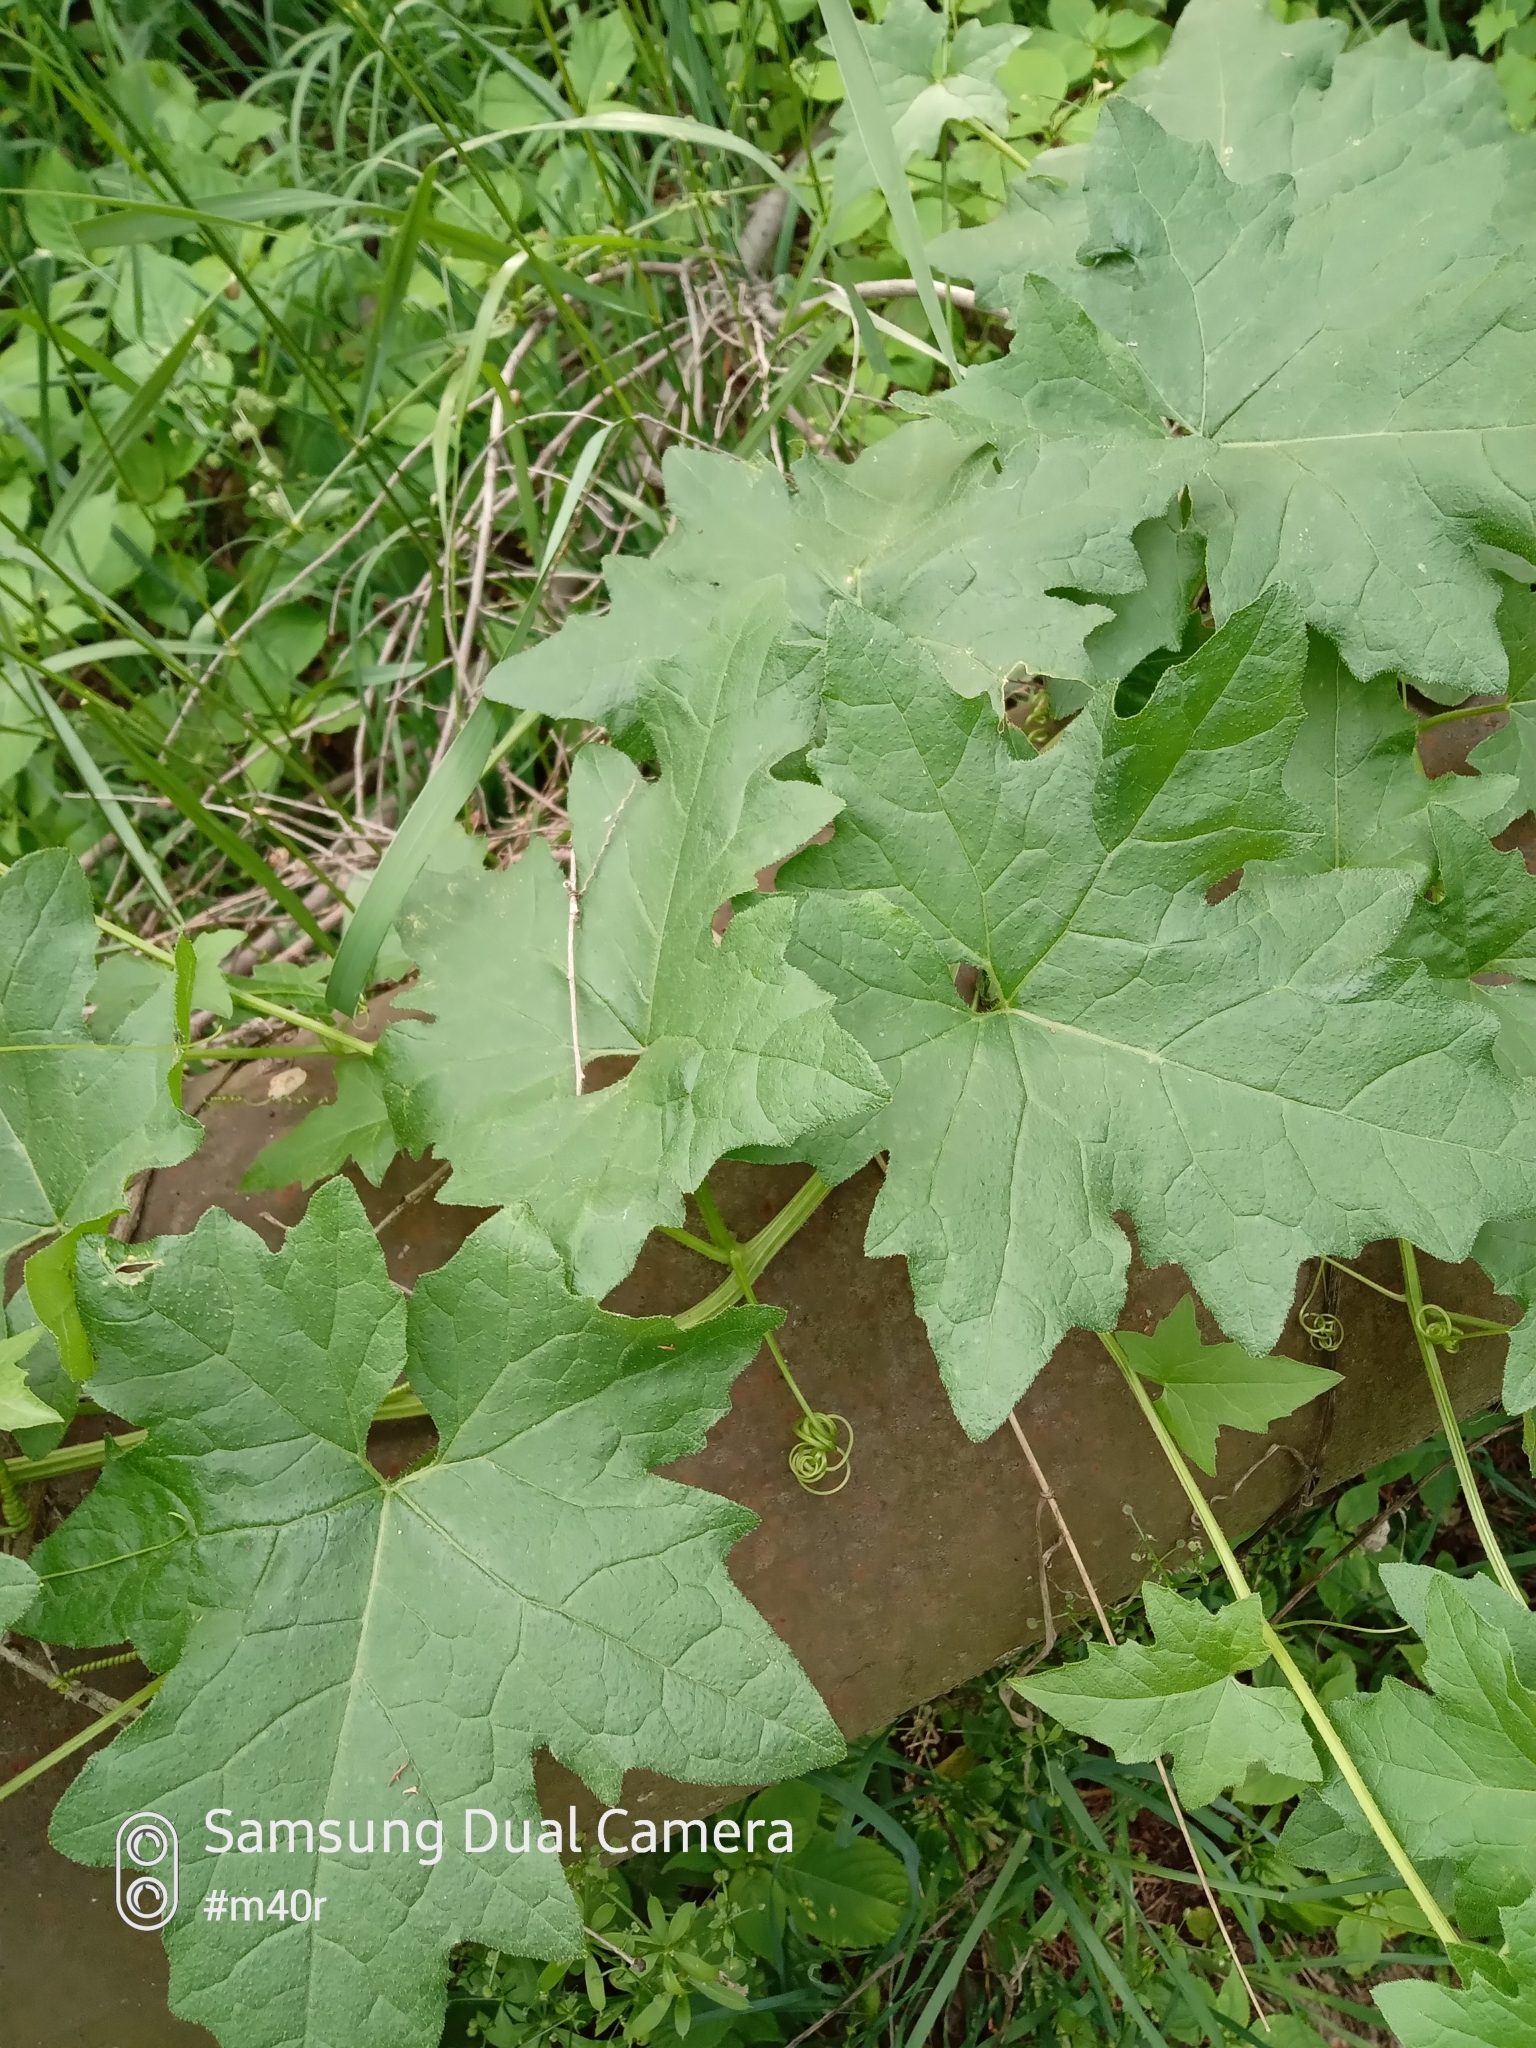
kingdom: Plantae
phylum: Tracheophyta
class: Magnoliopsida
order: Cucurbitales
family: Cucurbitaceae
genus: Bryonia
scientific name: Bryonia alba
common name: White bryony
